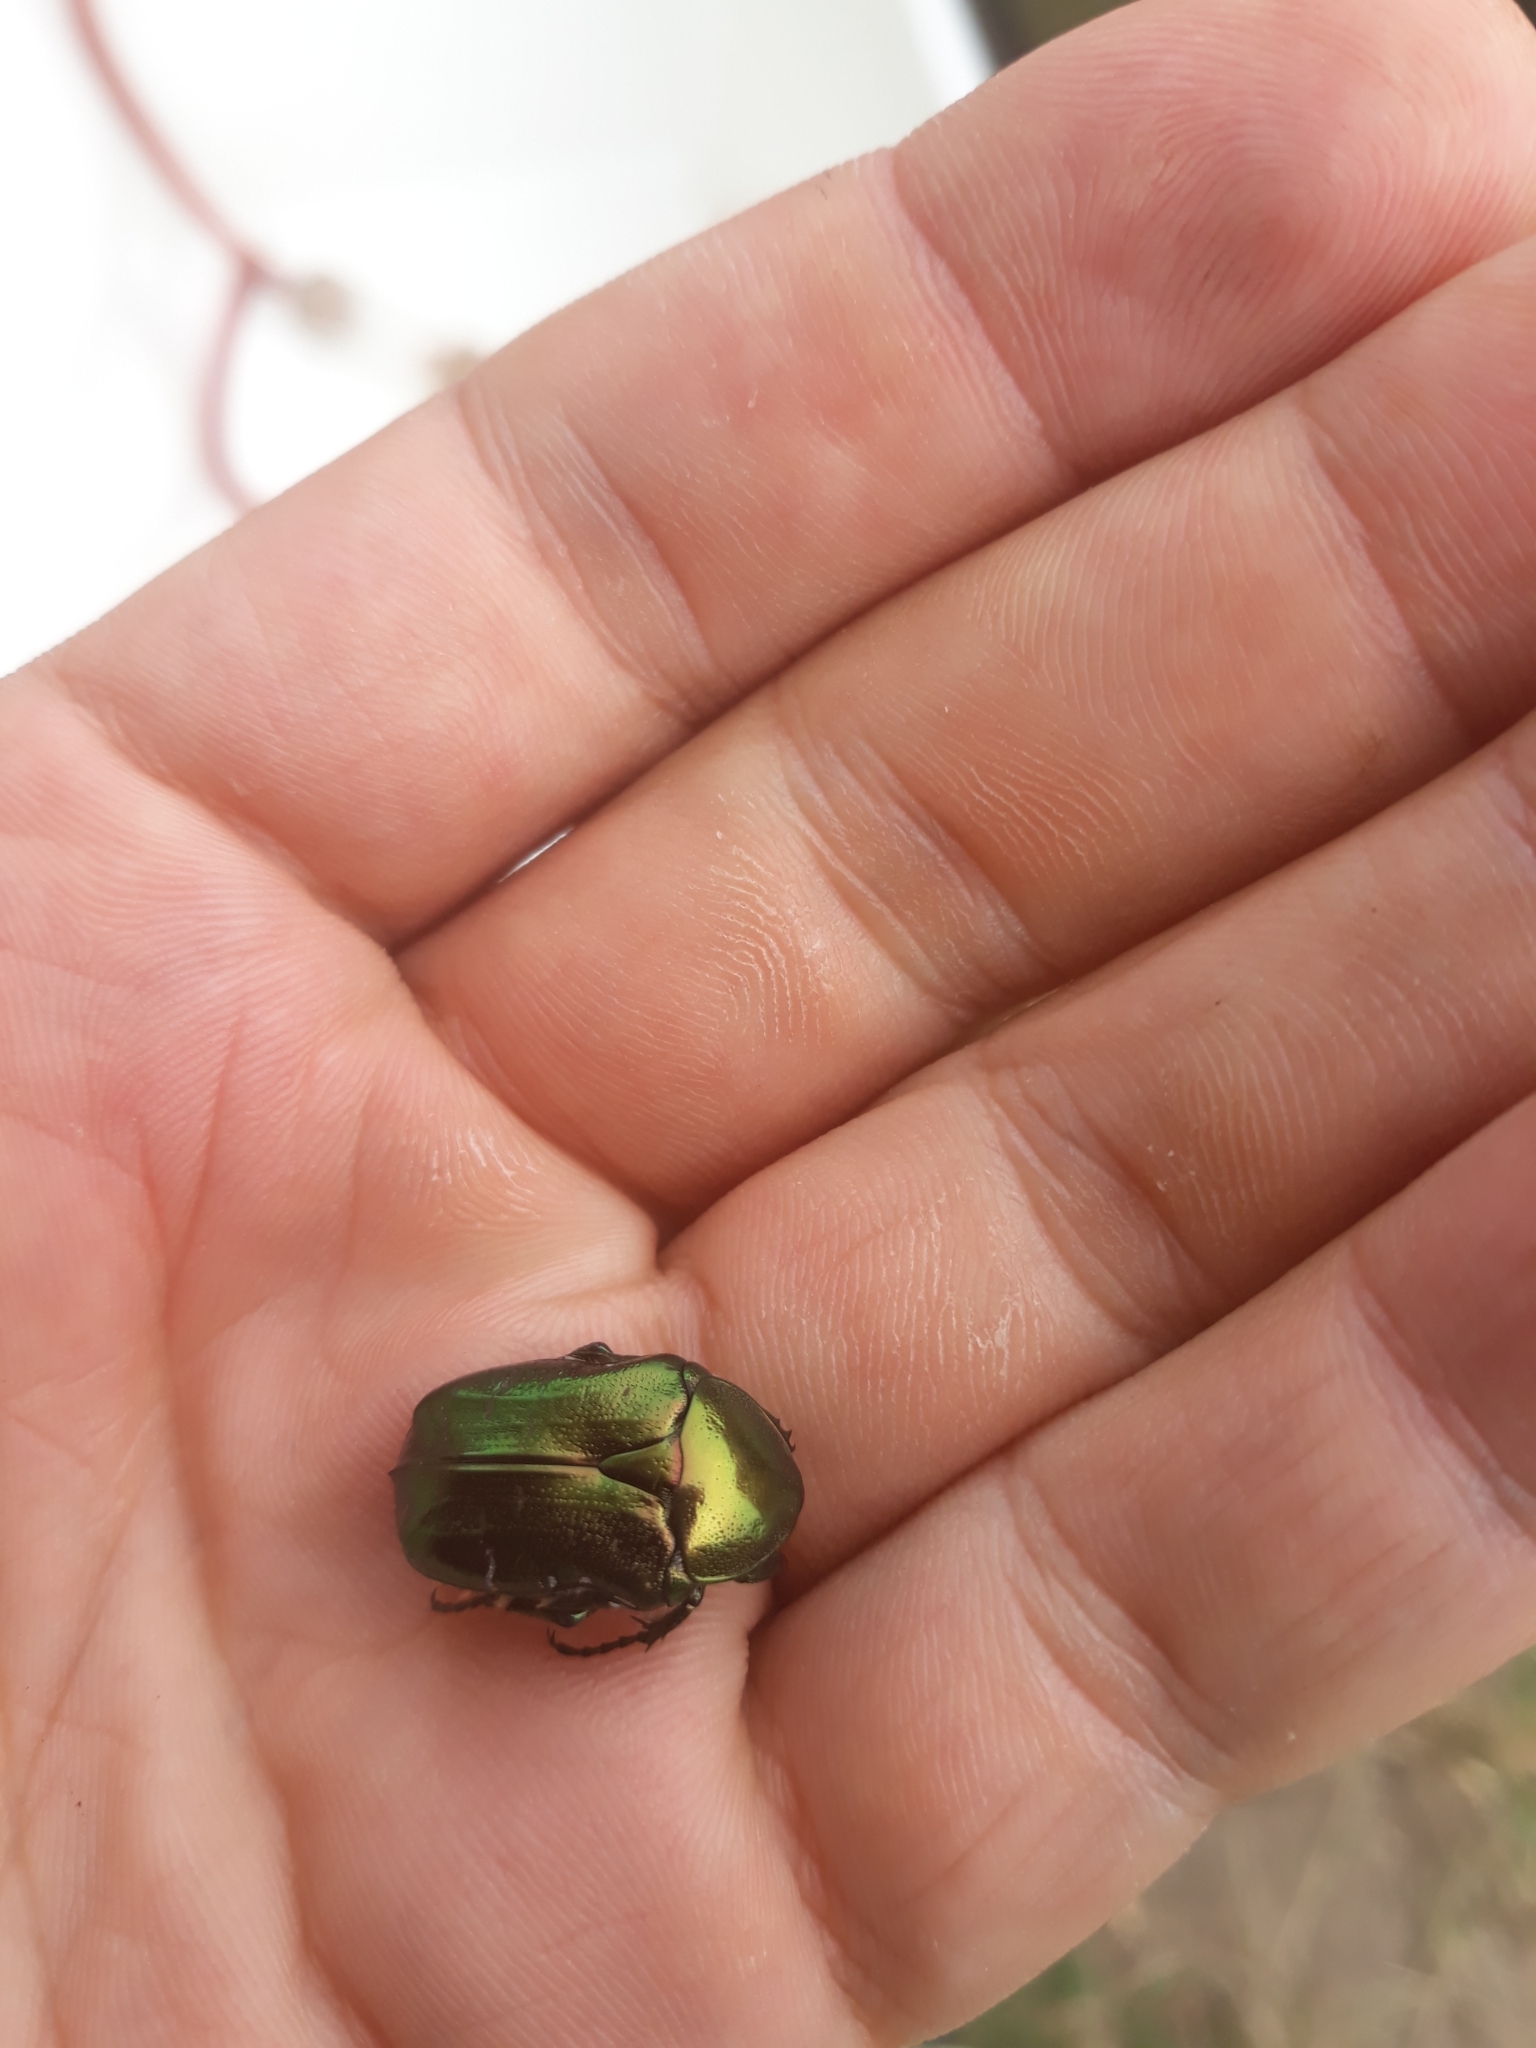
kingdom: Animalia
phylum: Arthropoda
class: Insecta
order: Coleoptera
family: Scarabaeidae
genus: Cetonia
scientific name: Cetonia aurata
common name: Rose chafer
